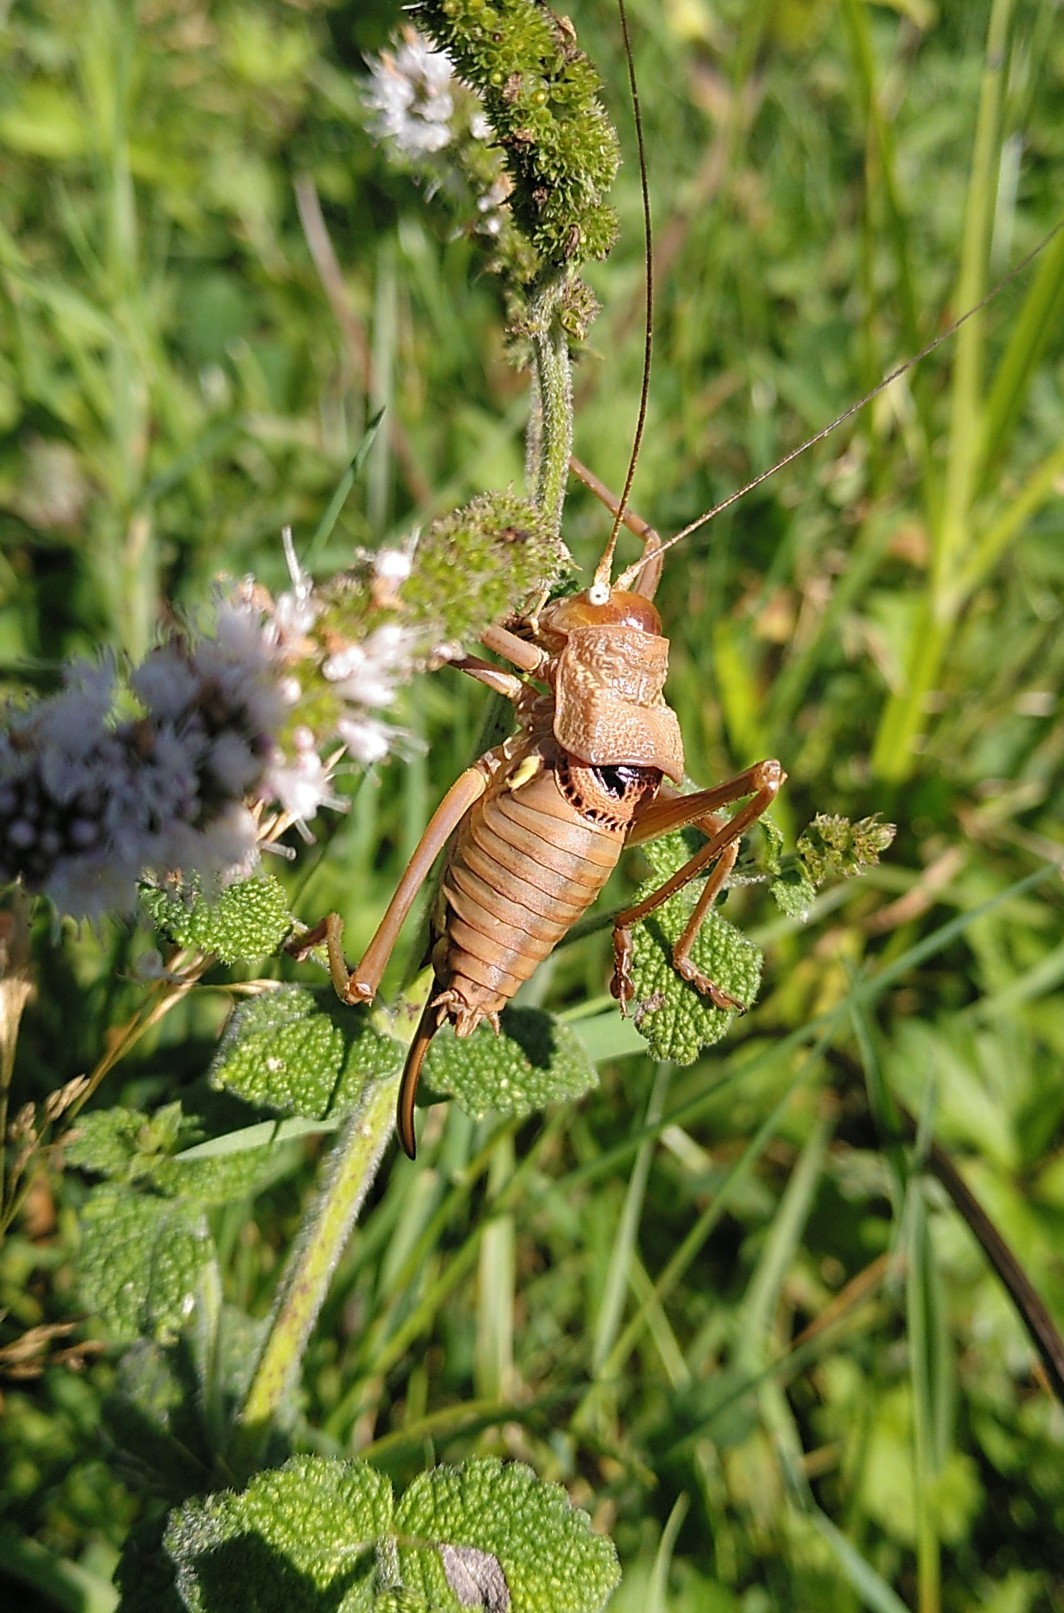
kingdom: Animalia
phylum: Arthropoda
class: Insecta
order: Orthoptera
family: Tettigoniidae
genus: Uromenus
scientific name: Uromenus rugosicollis
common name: Rough saddle bush-cricket
